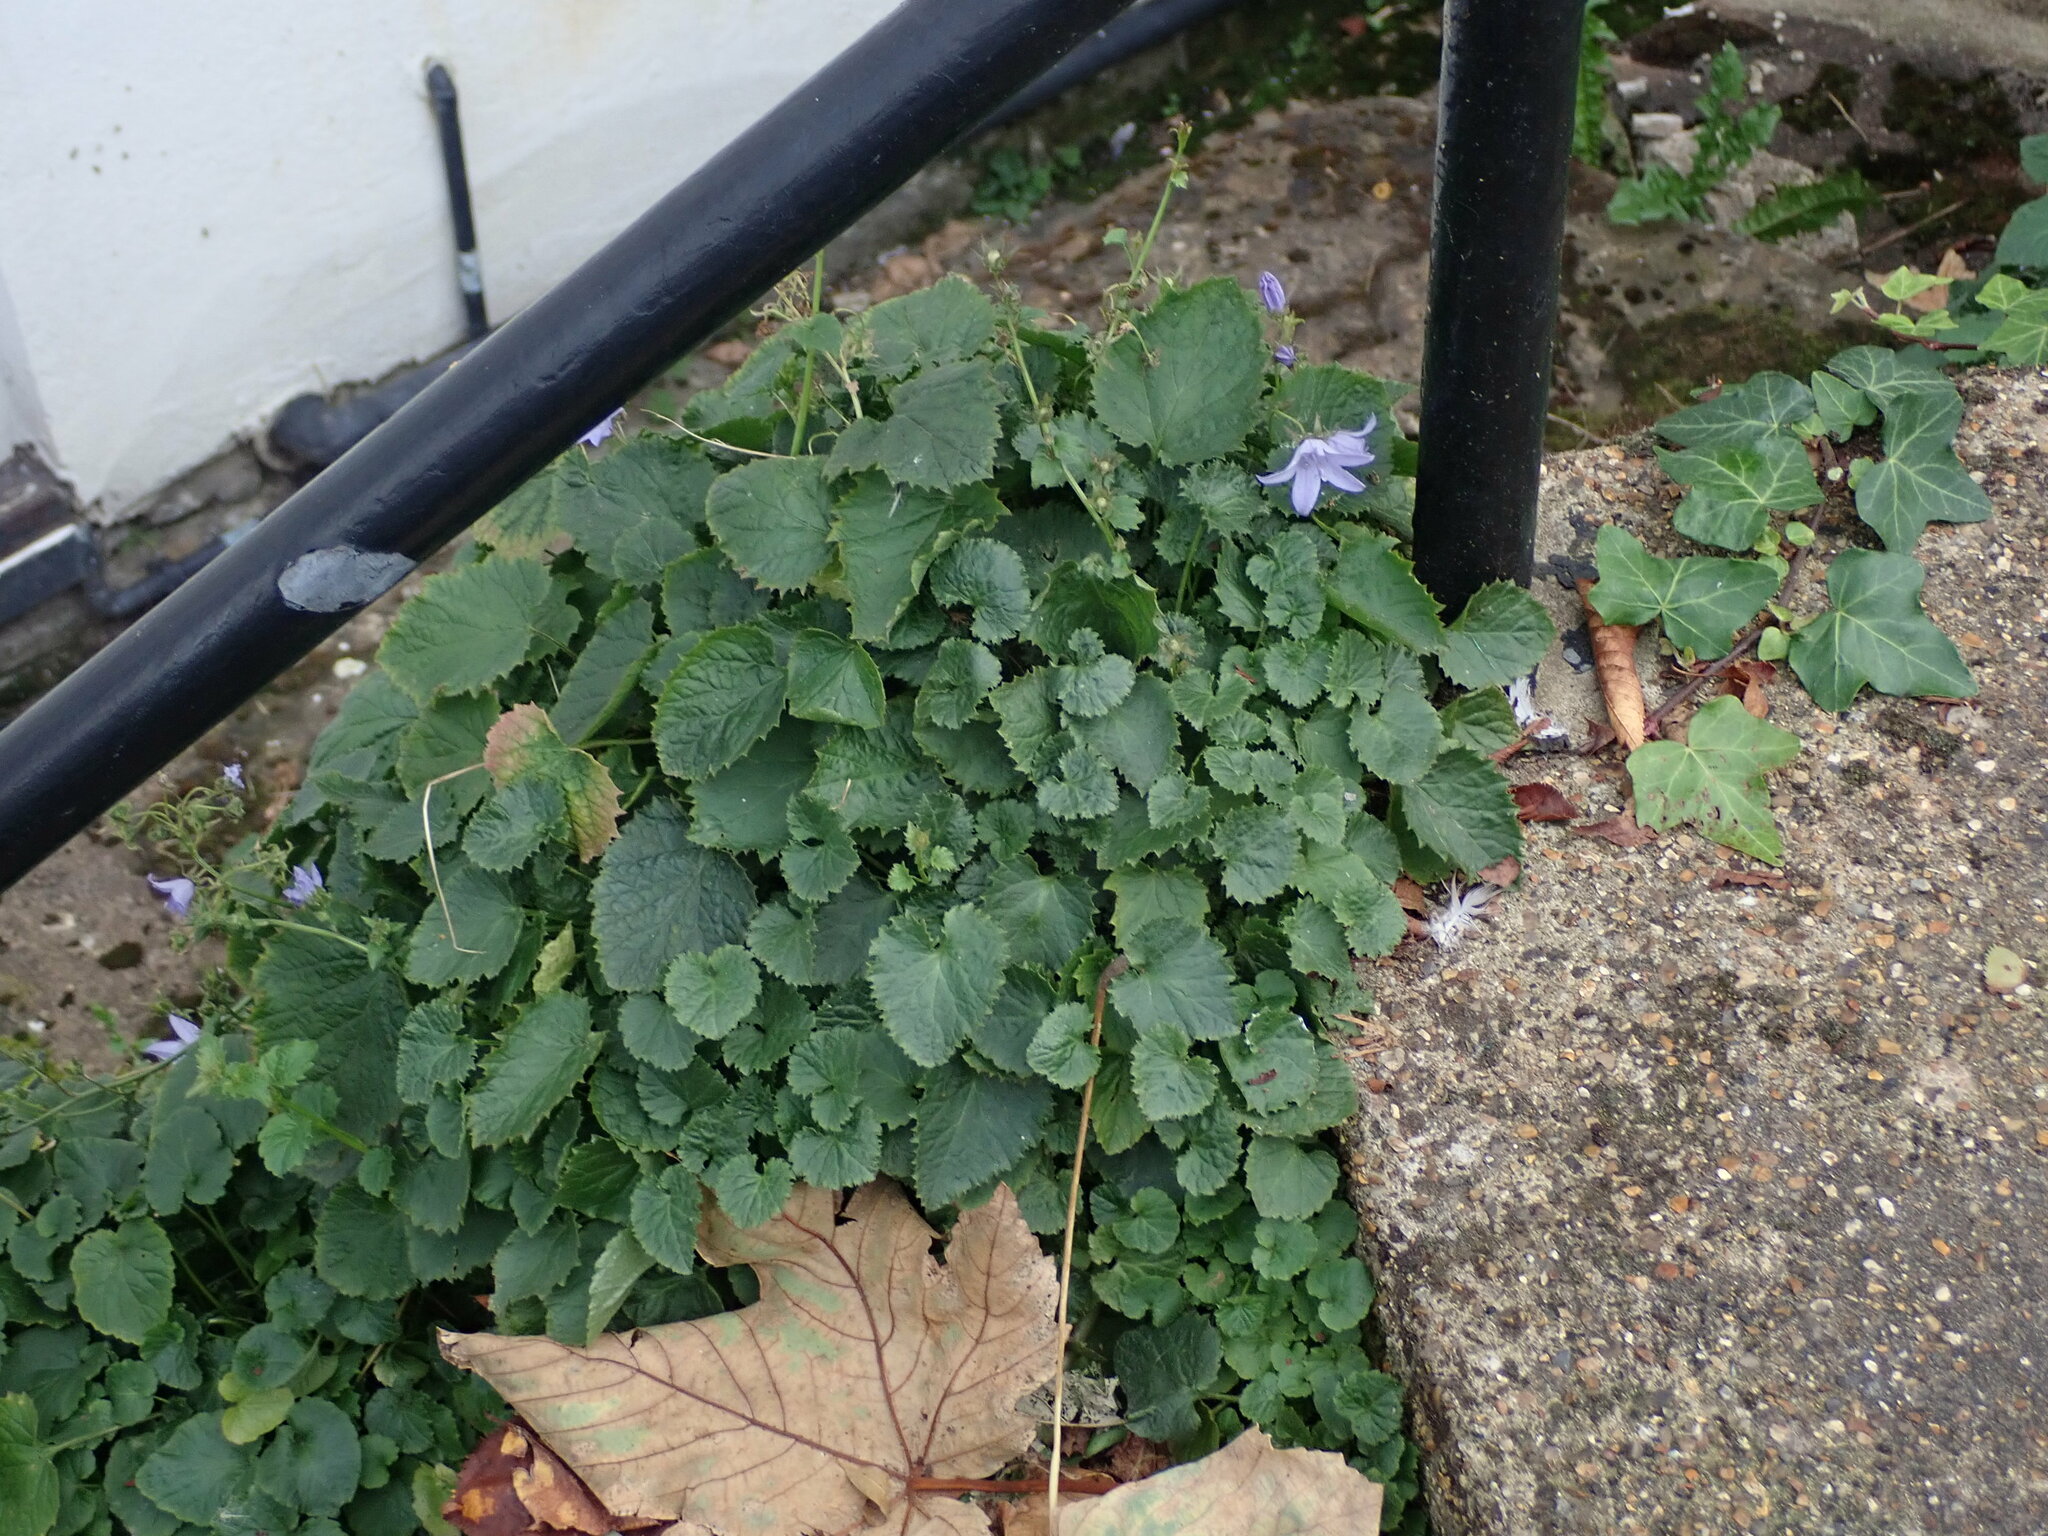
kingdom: Plantae
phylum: Tracheophyta
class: Magnoliopsida
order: Asterales
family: Campanulaceae
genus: Campanula
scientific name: Campanula poscharskyana
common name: Trailing bellflower
